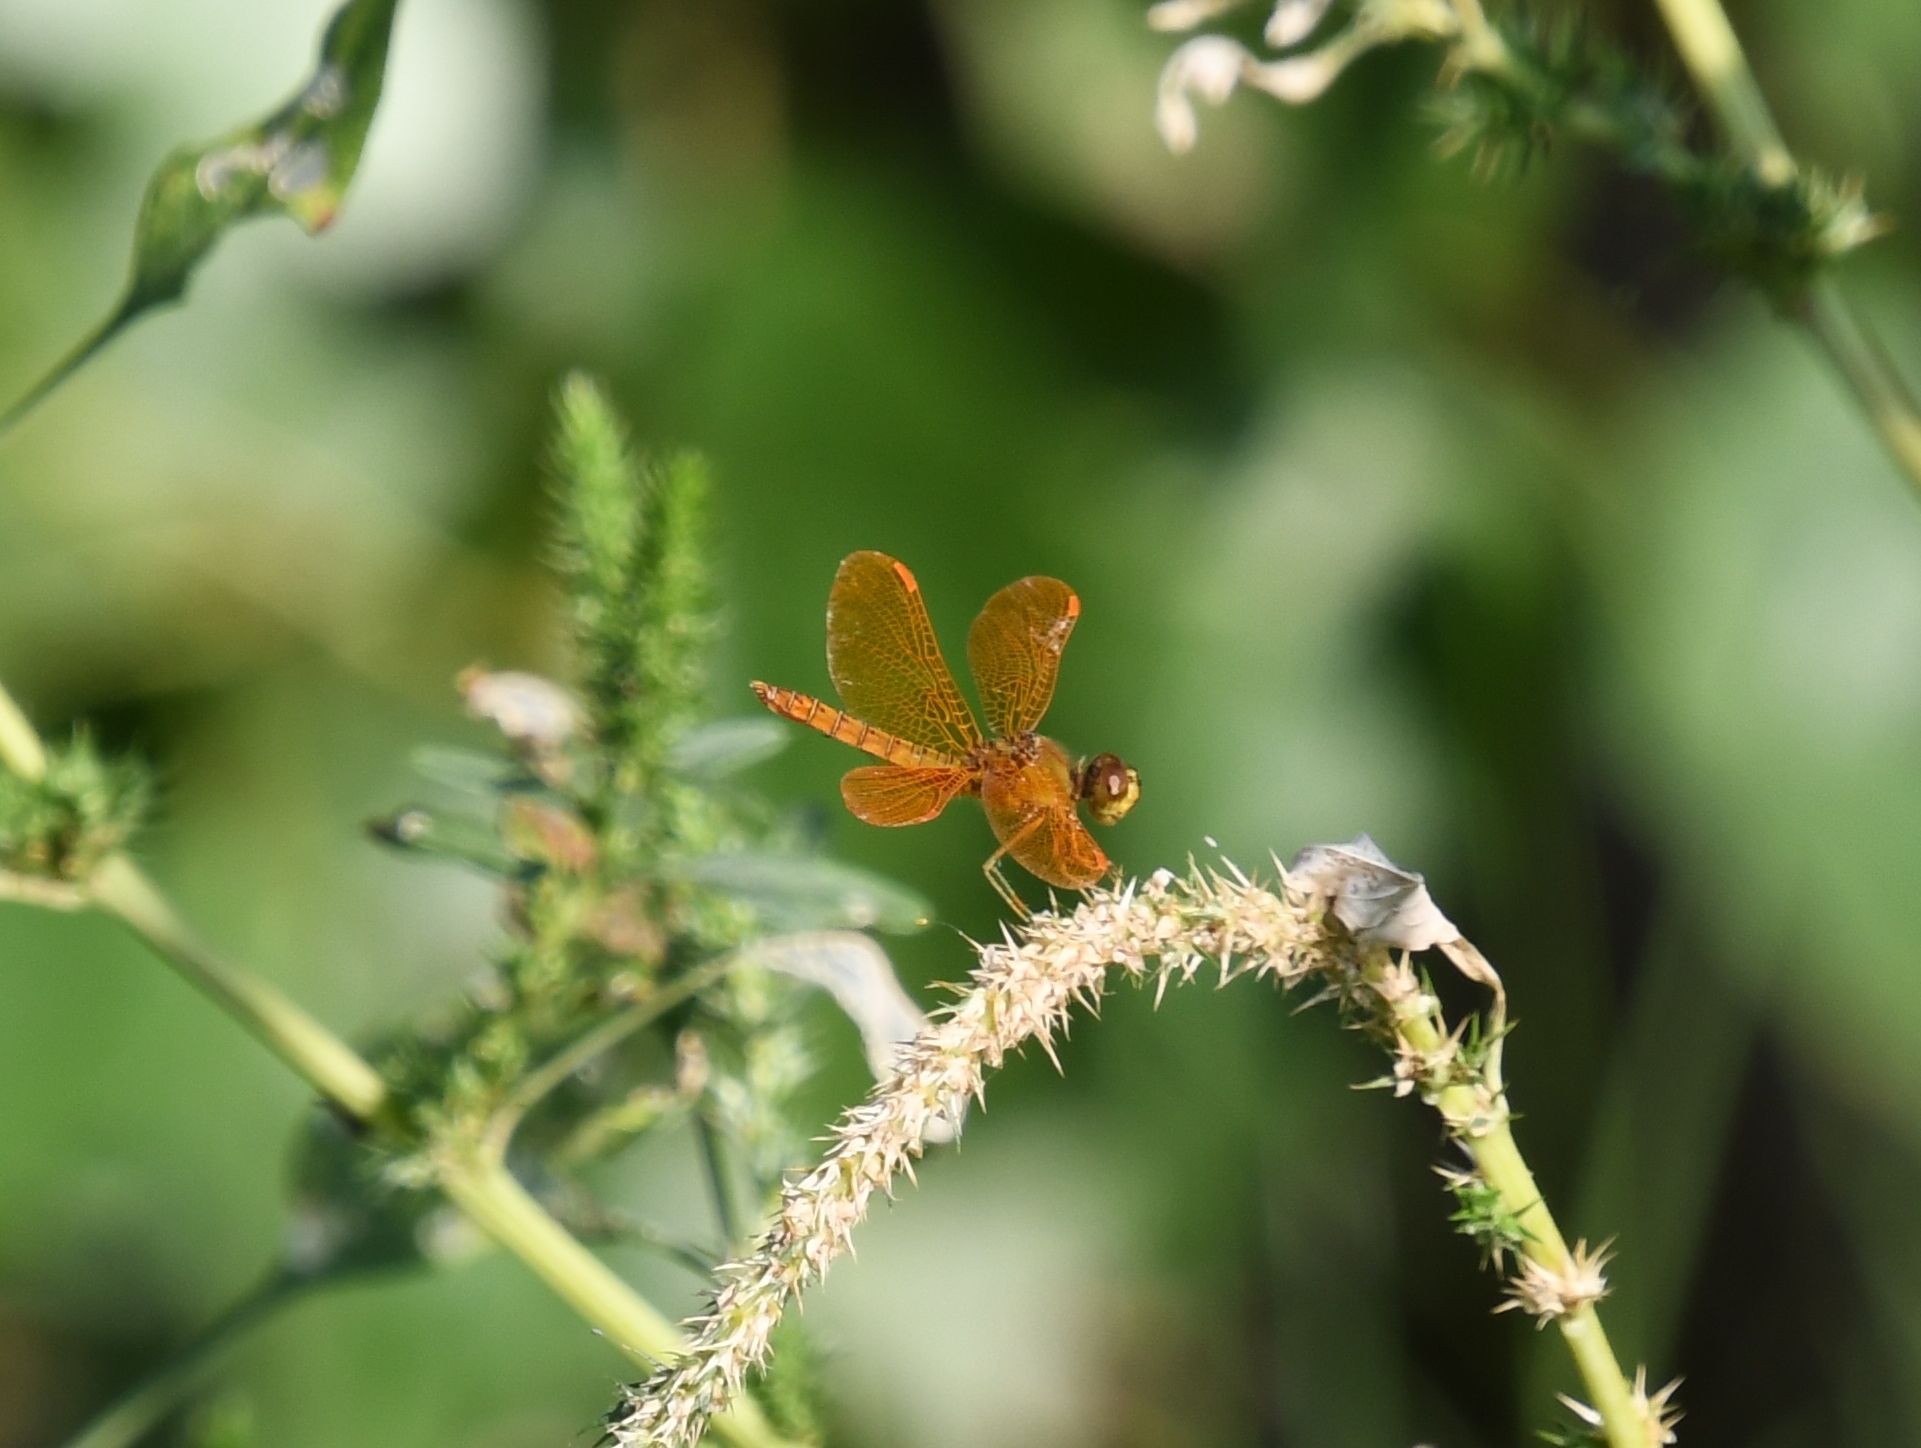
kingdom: Animalia
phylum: Arthropoda
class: Insecta
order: Odonata
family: Libellulidae
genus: Perithemis
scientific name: Perithemis intensa
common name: Mexican amberwing
